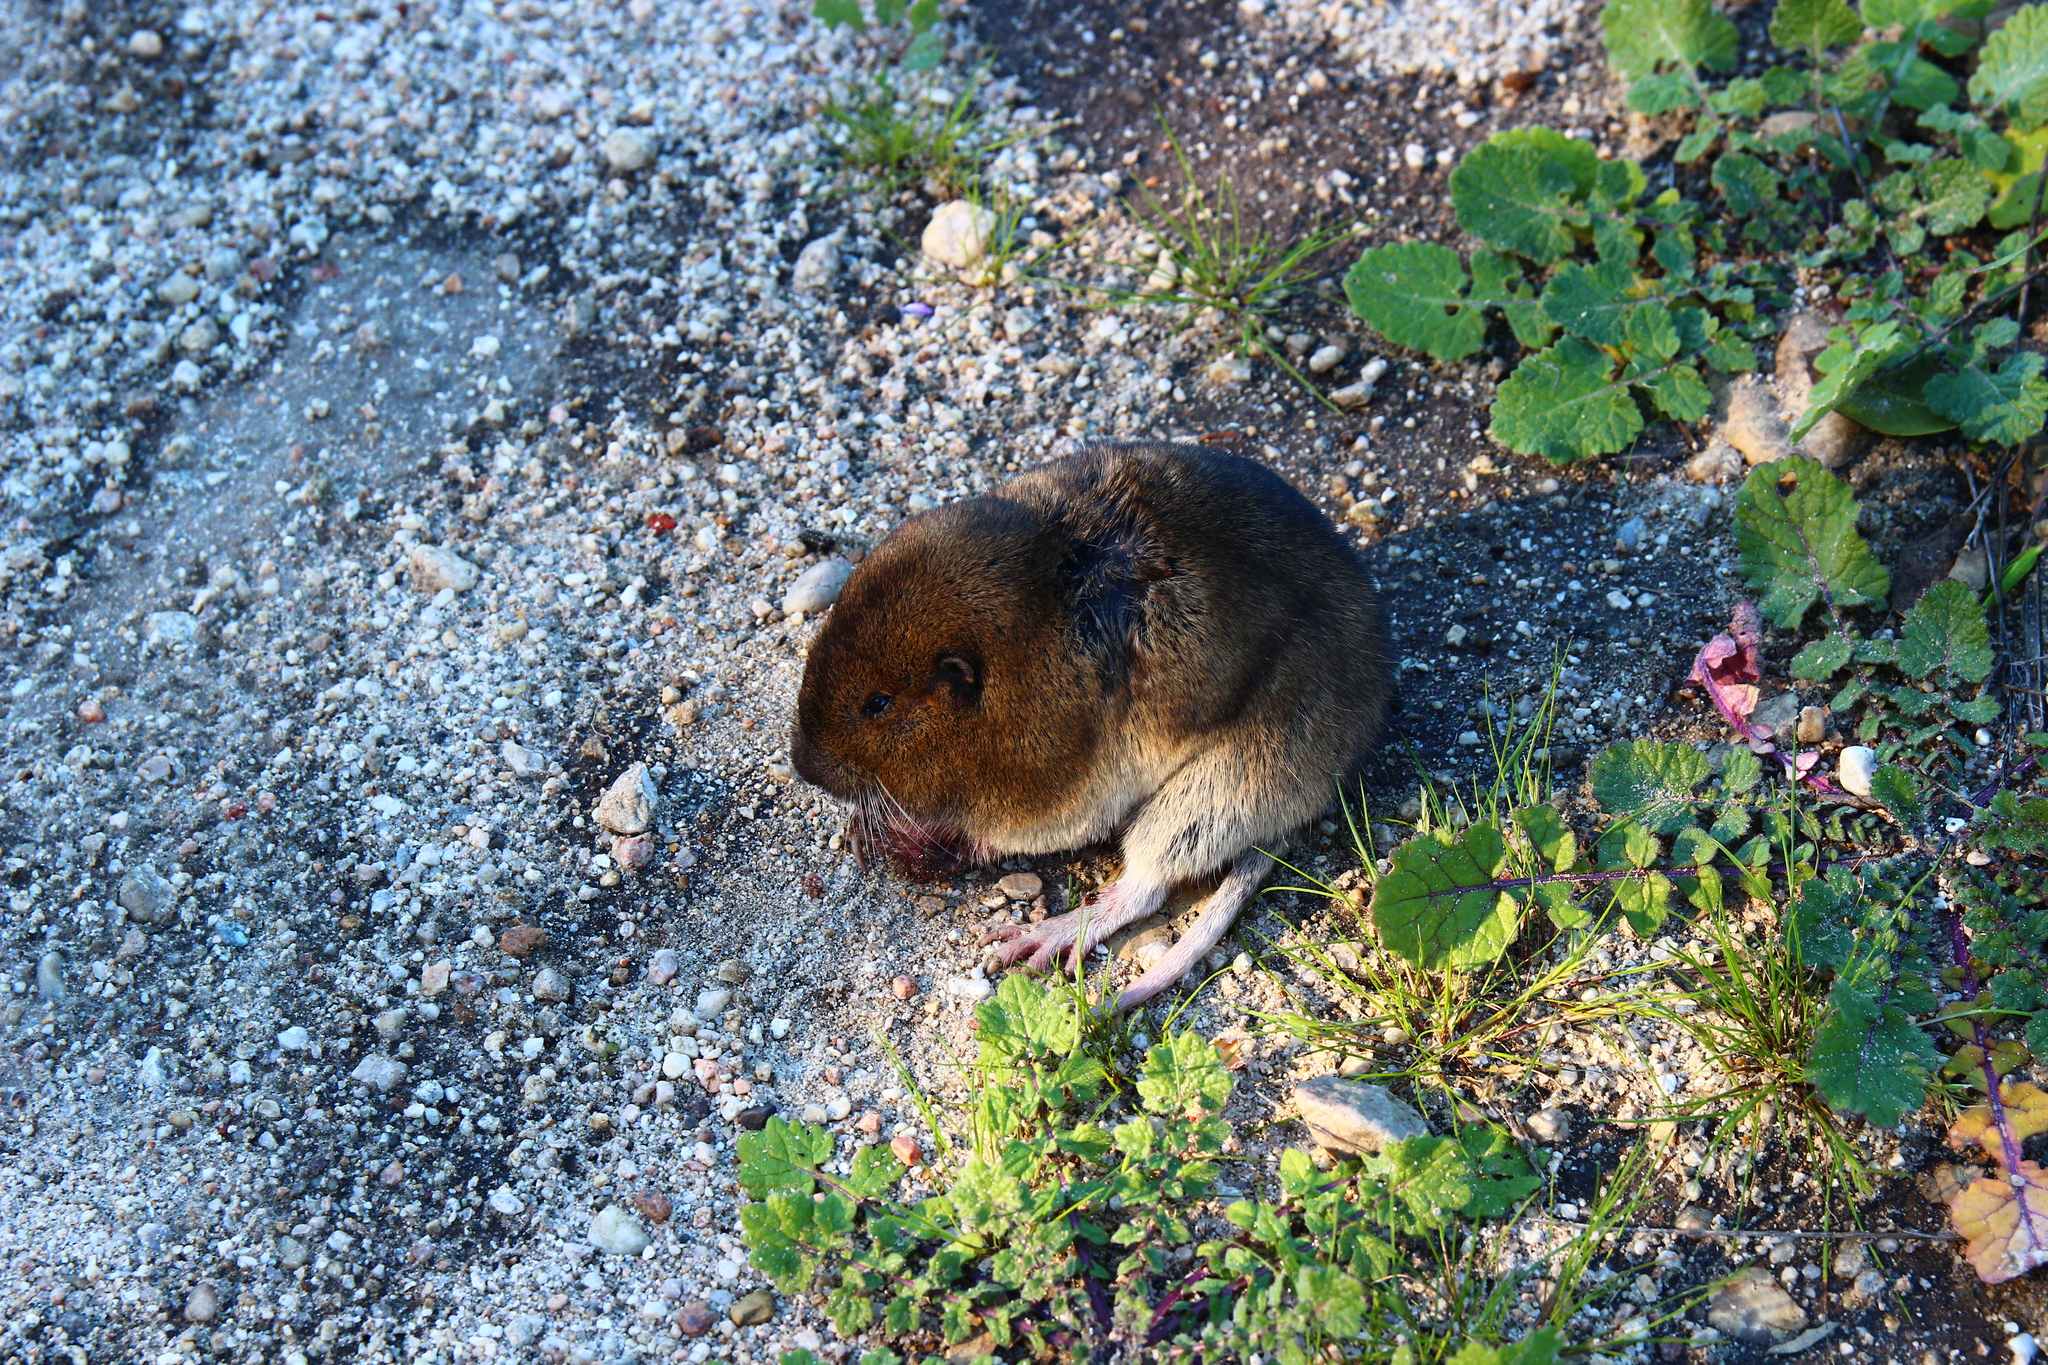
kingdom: Animalia
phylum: Chordata
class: Mammalia
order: Rodentia
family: Geomyidae
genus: Thomomys
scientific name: Thomomys bottae
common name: Botta's pocket gopher
